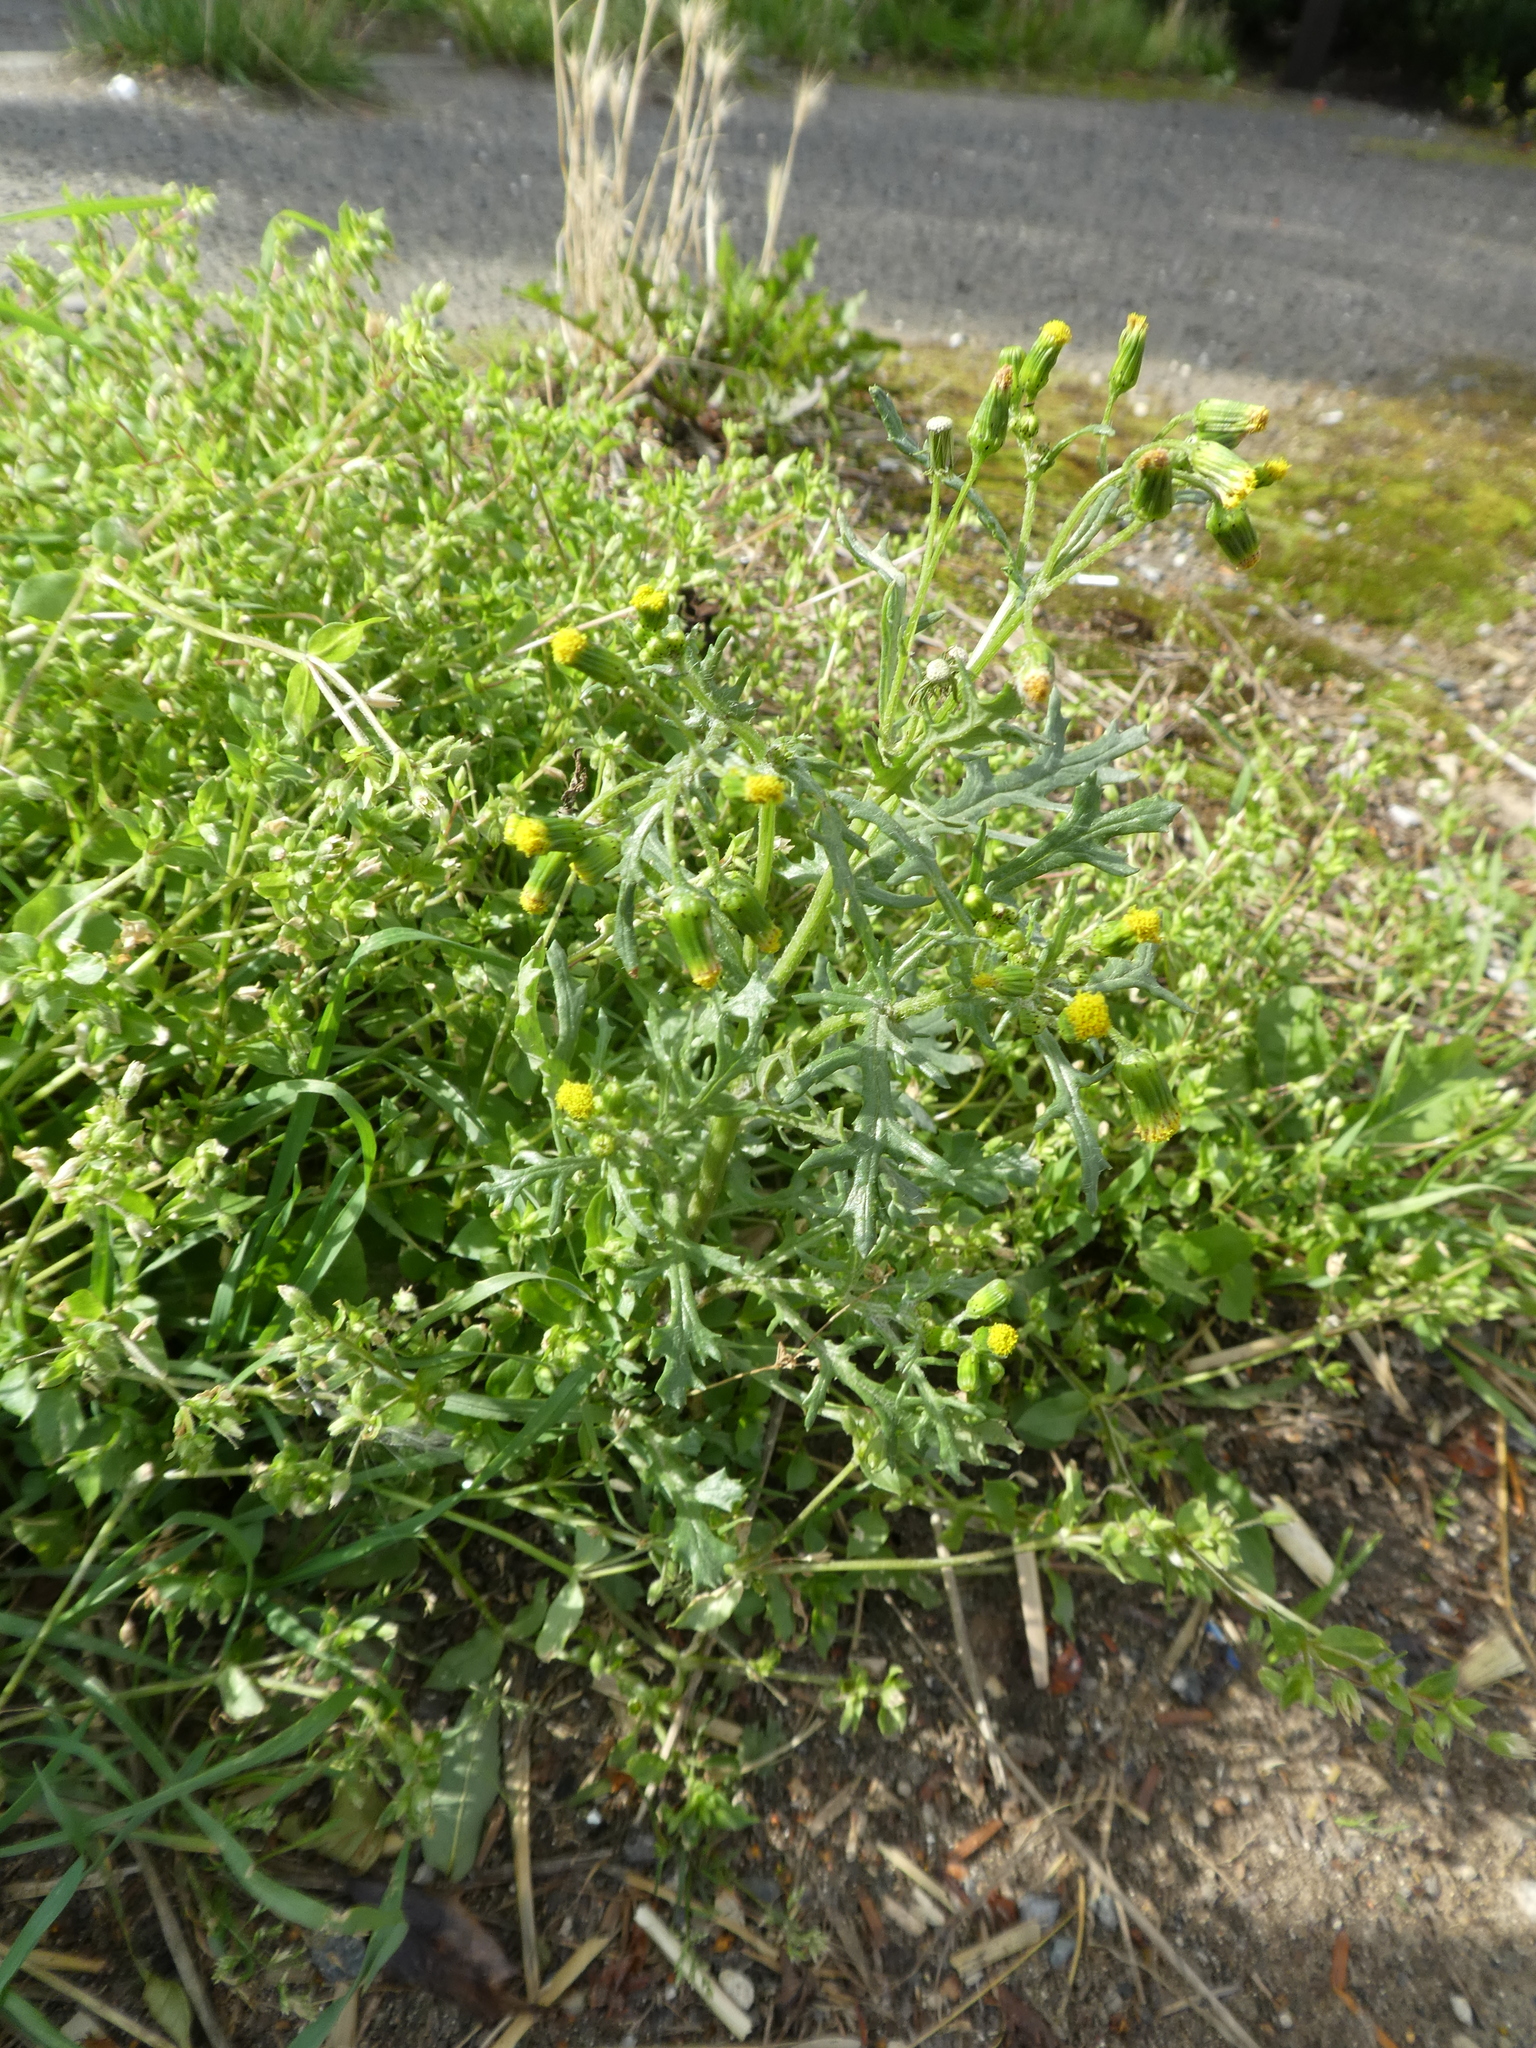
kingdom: Plantae
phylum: Tracheophyta
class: Magnoliopsida
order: Asterales
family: Asteraceae
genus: Senecio
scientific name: Senecio vulgaris
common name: Old-man-in-the-spring
